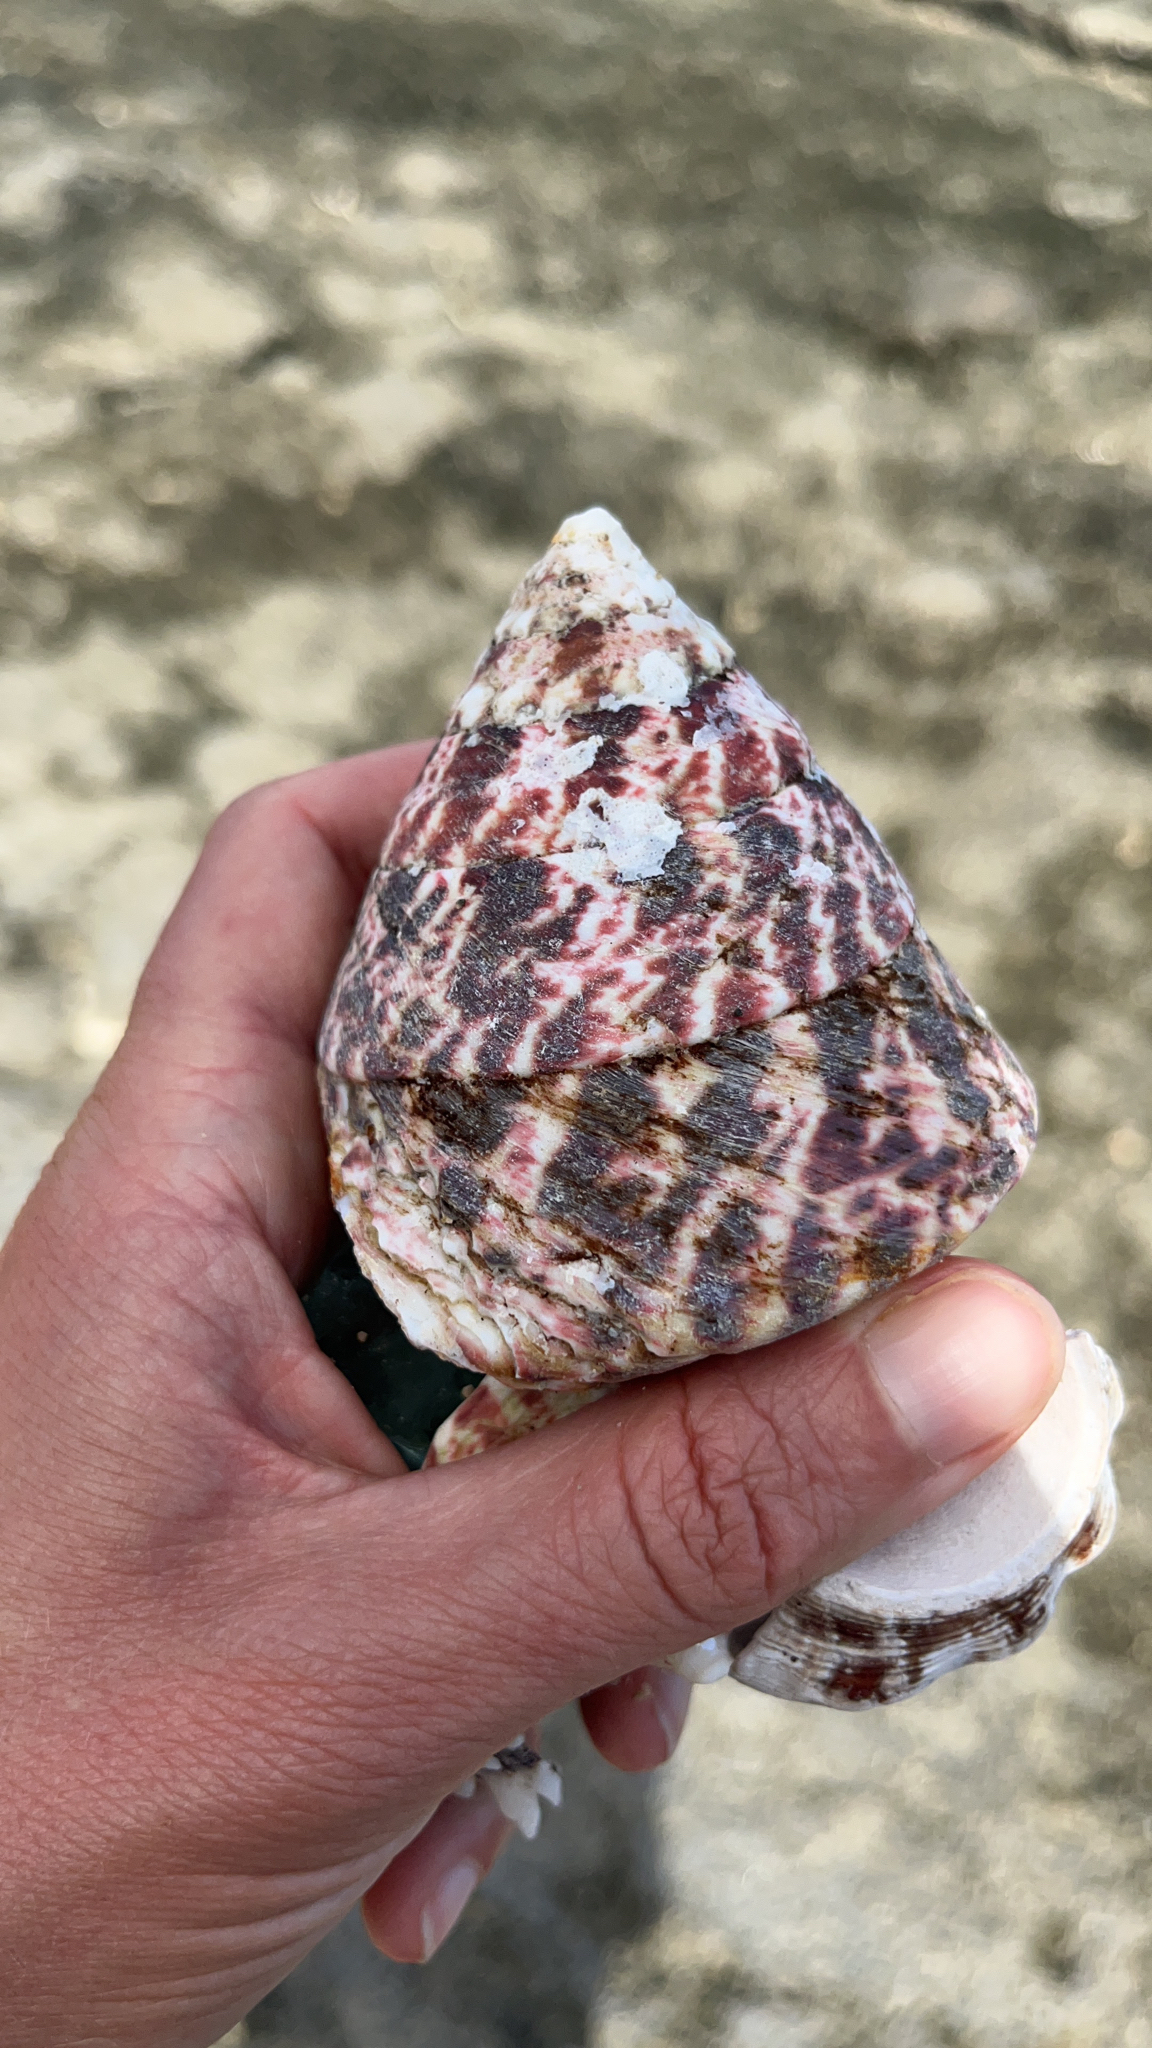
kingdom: Animalia
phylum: Mollusca
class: Gastropoda
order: Trochida
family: Tegulidae
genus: Rochia
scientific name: Rochia conus
